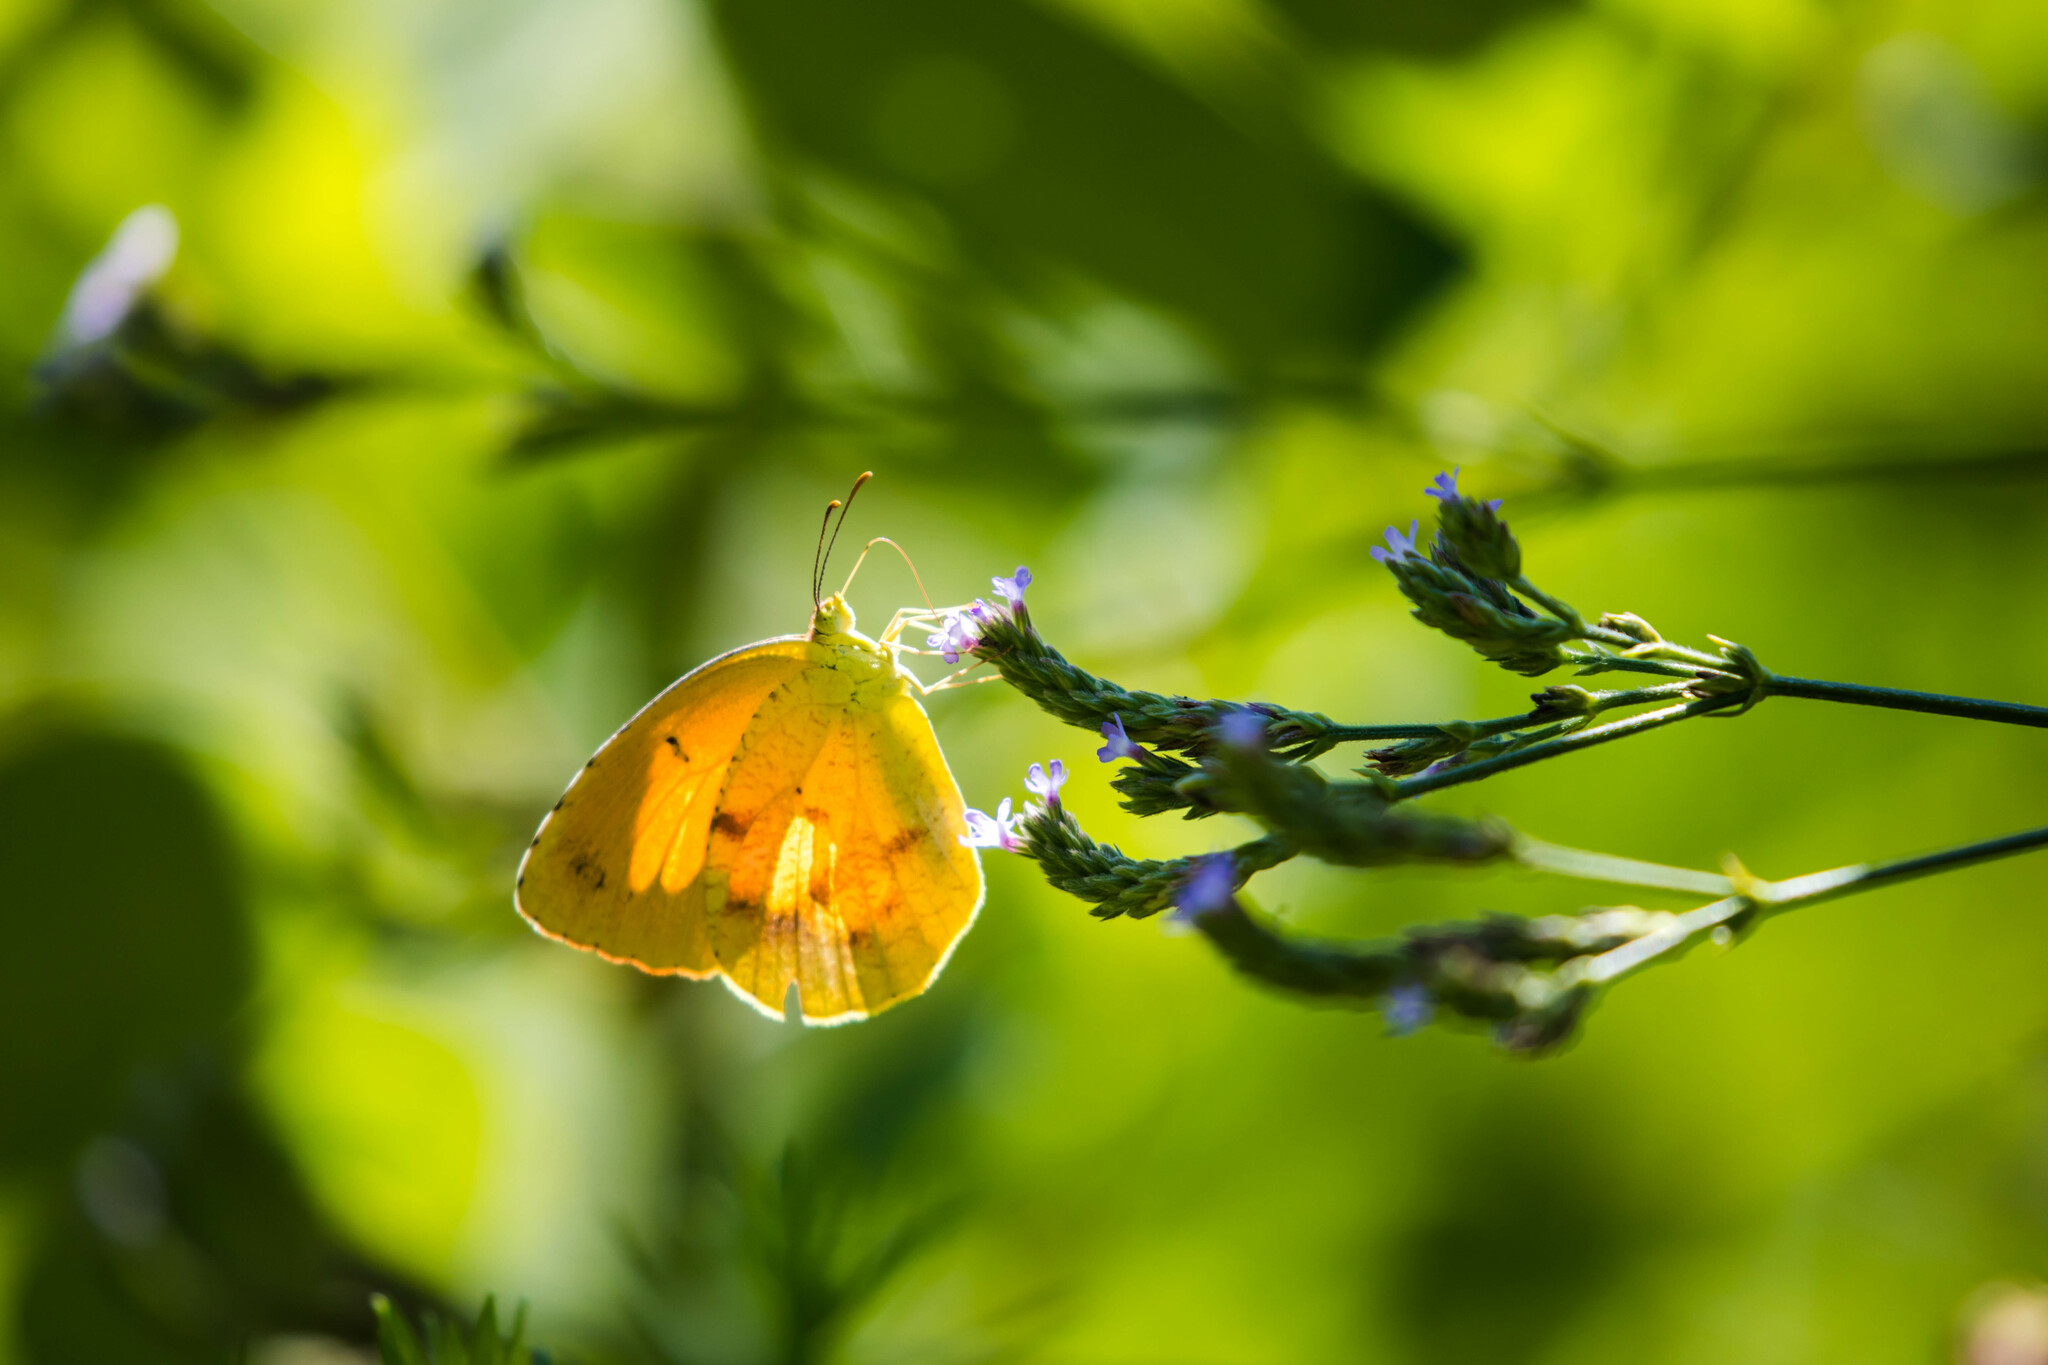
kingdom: Animalia
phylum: Arthropoda
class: Insecta
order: Lepidoptera
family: Pieridae
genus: Abaeis
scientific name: Abaeis nicippe
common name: Sleepy orange
